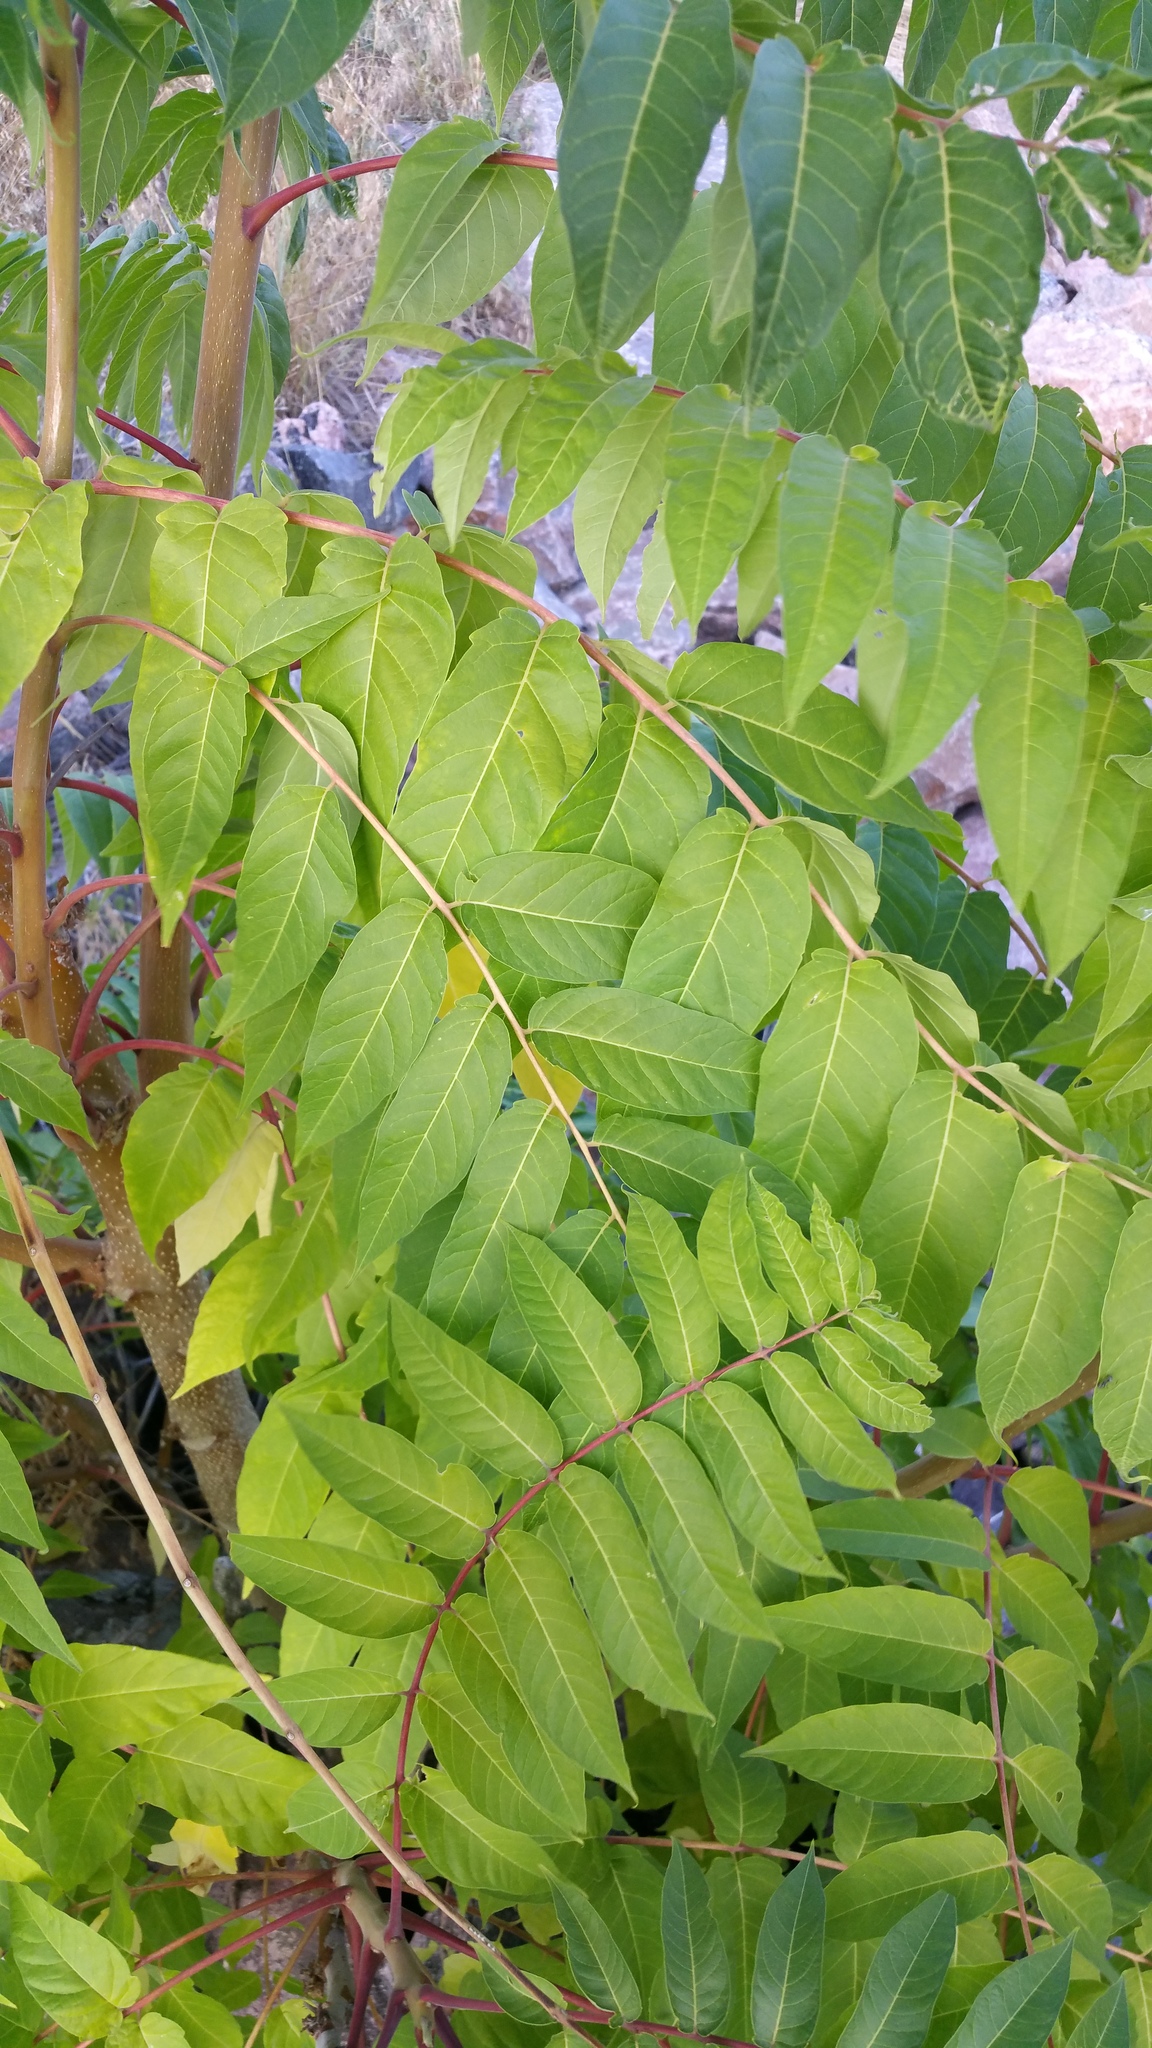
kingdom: Plantae
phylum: Tracheophyta
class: Magnoliopsida
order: Sapindales
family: Simaroubaceae
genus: Ailanthus
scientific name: Ailanthus altissima
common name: Tree-of-heaven
